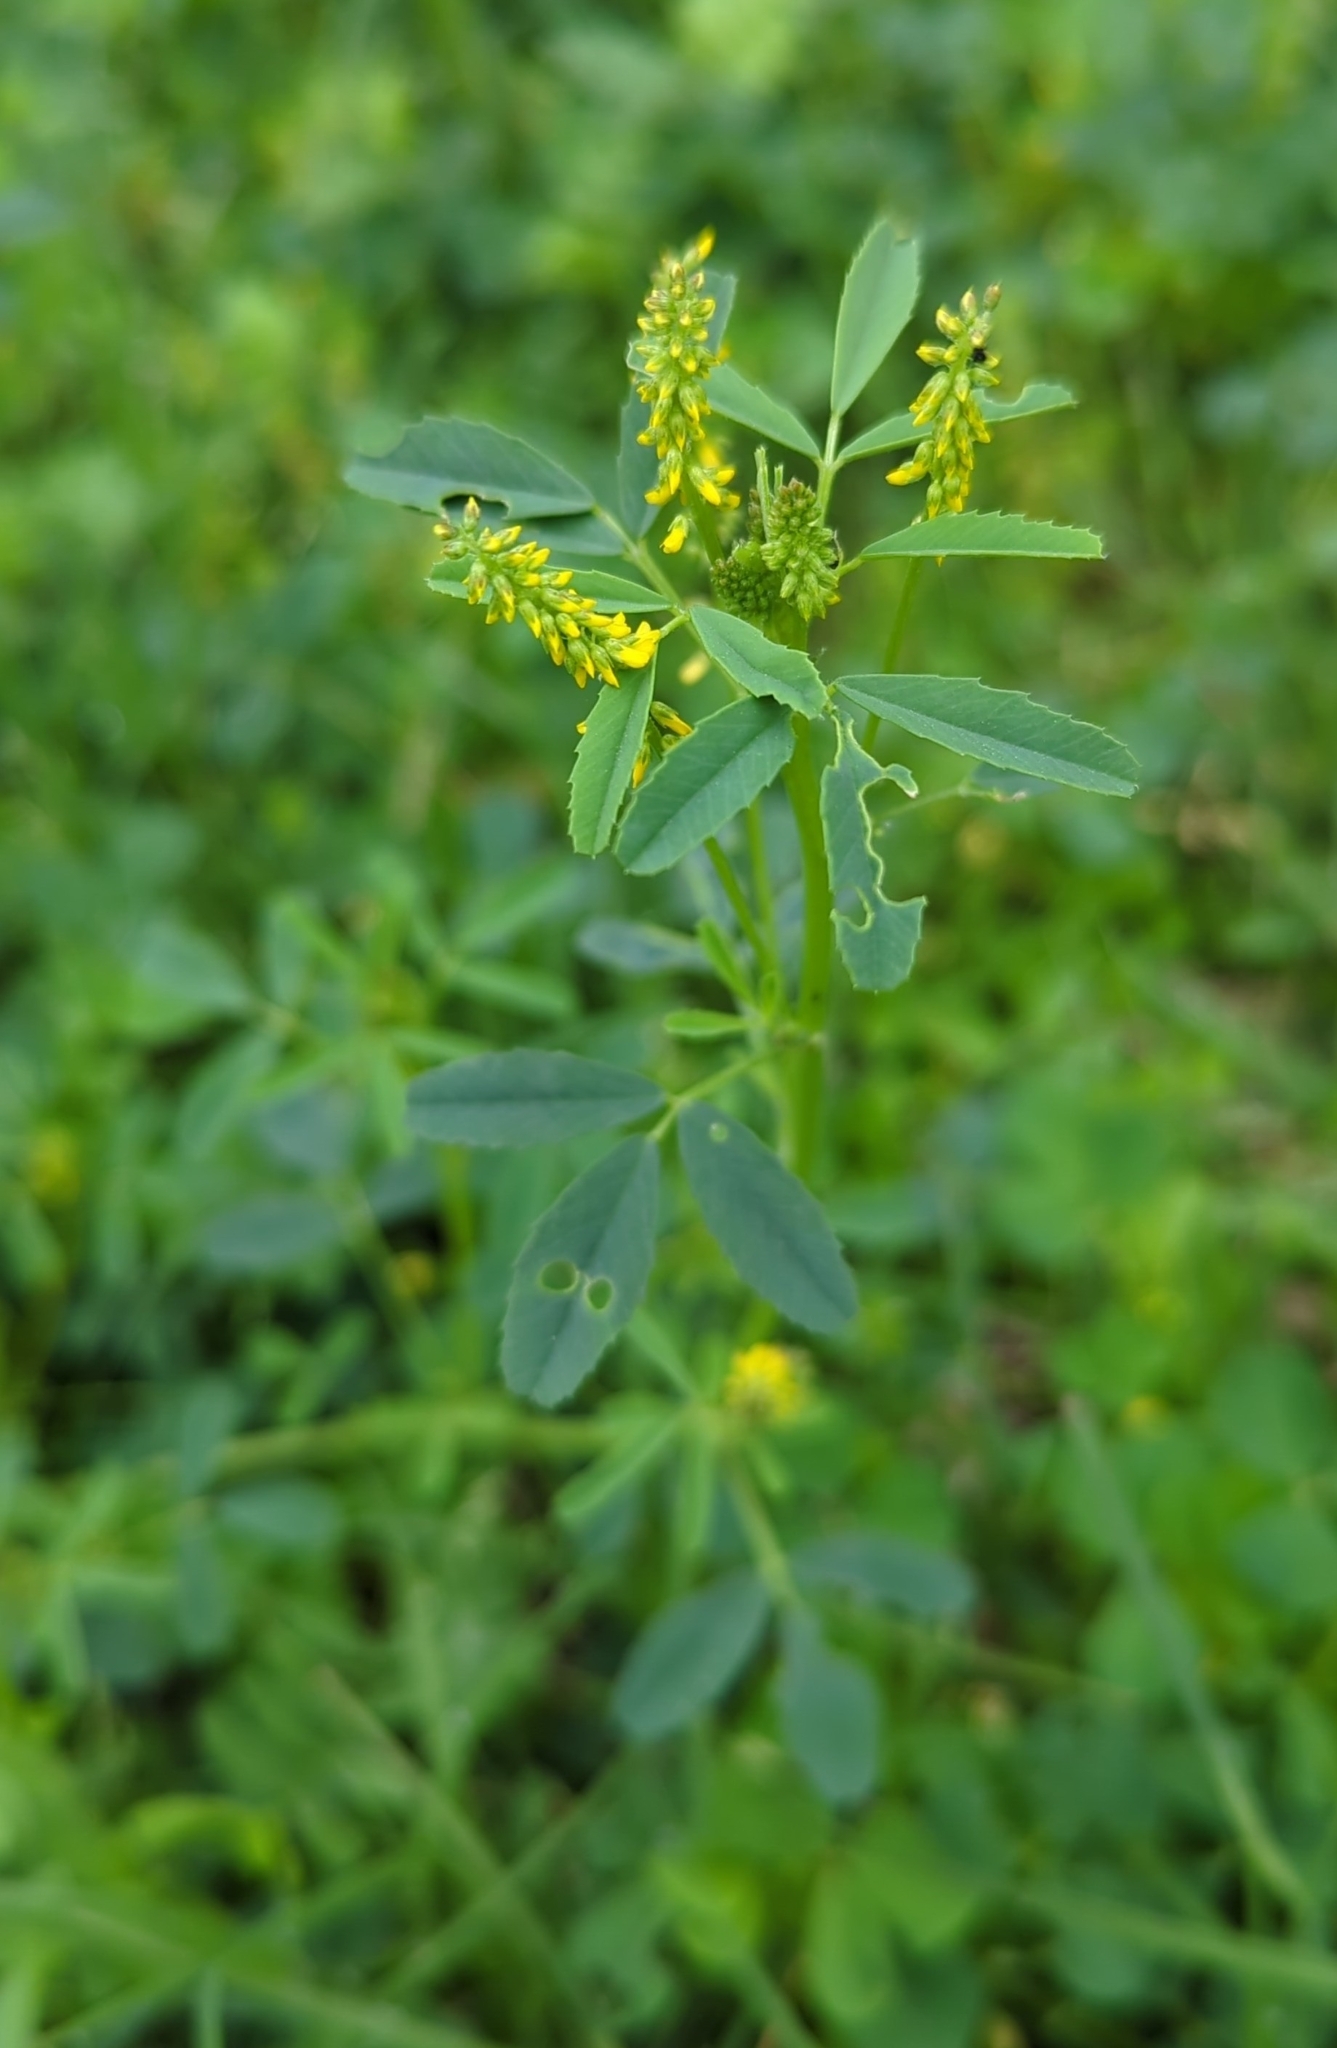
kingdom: Plantae
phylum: Tracheophyta
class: Magnoliopsida
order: Fabales
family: Fabaceae
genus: Melilotus
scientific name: Melilotus indicus
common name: Small melilot
